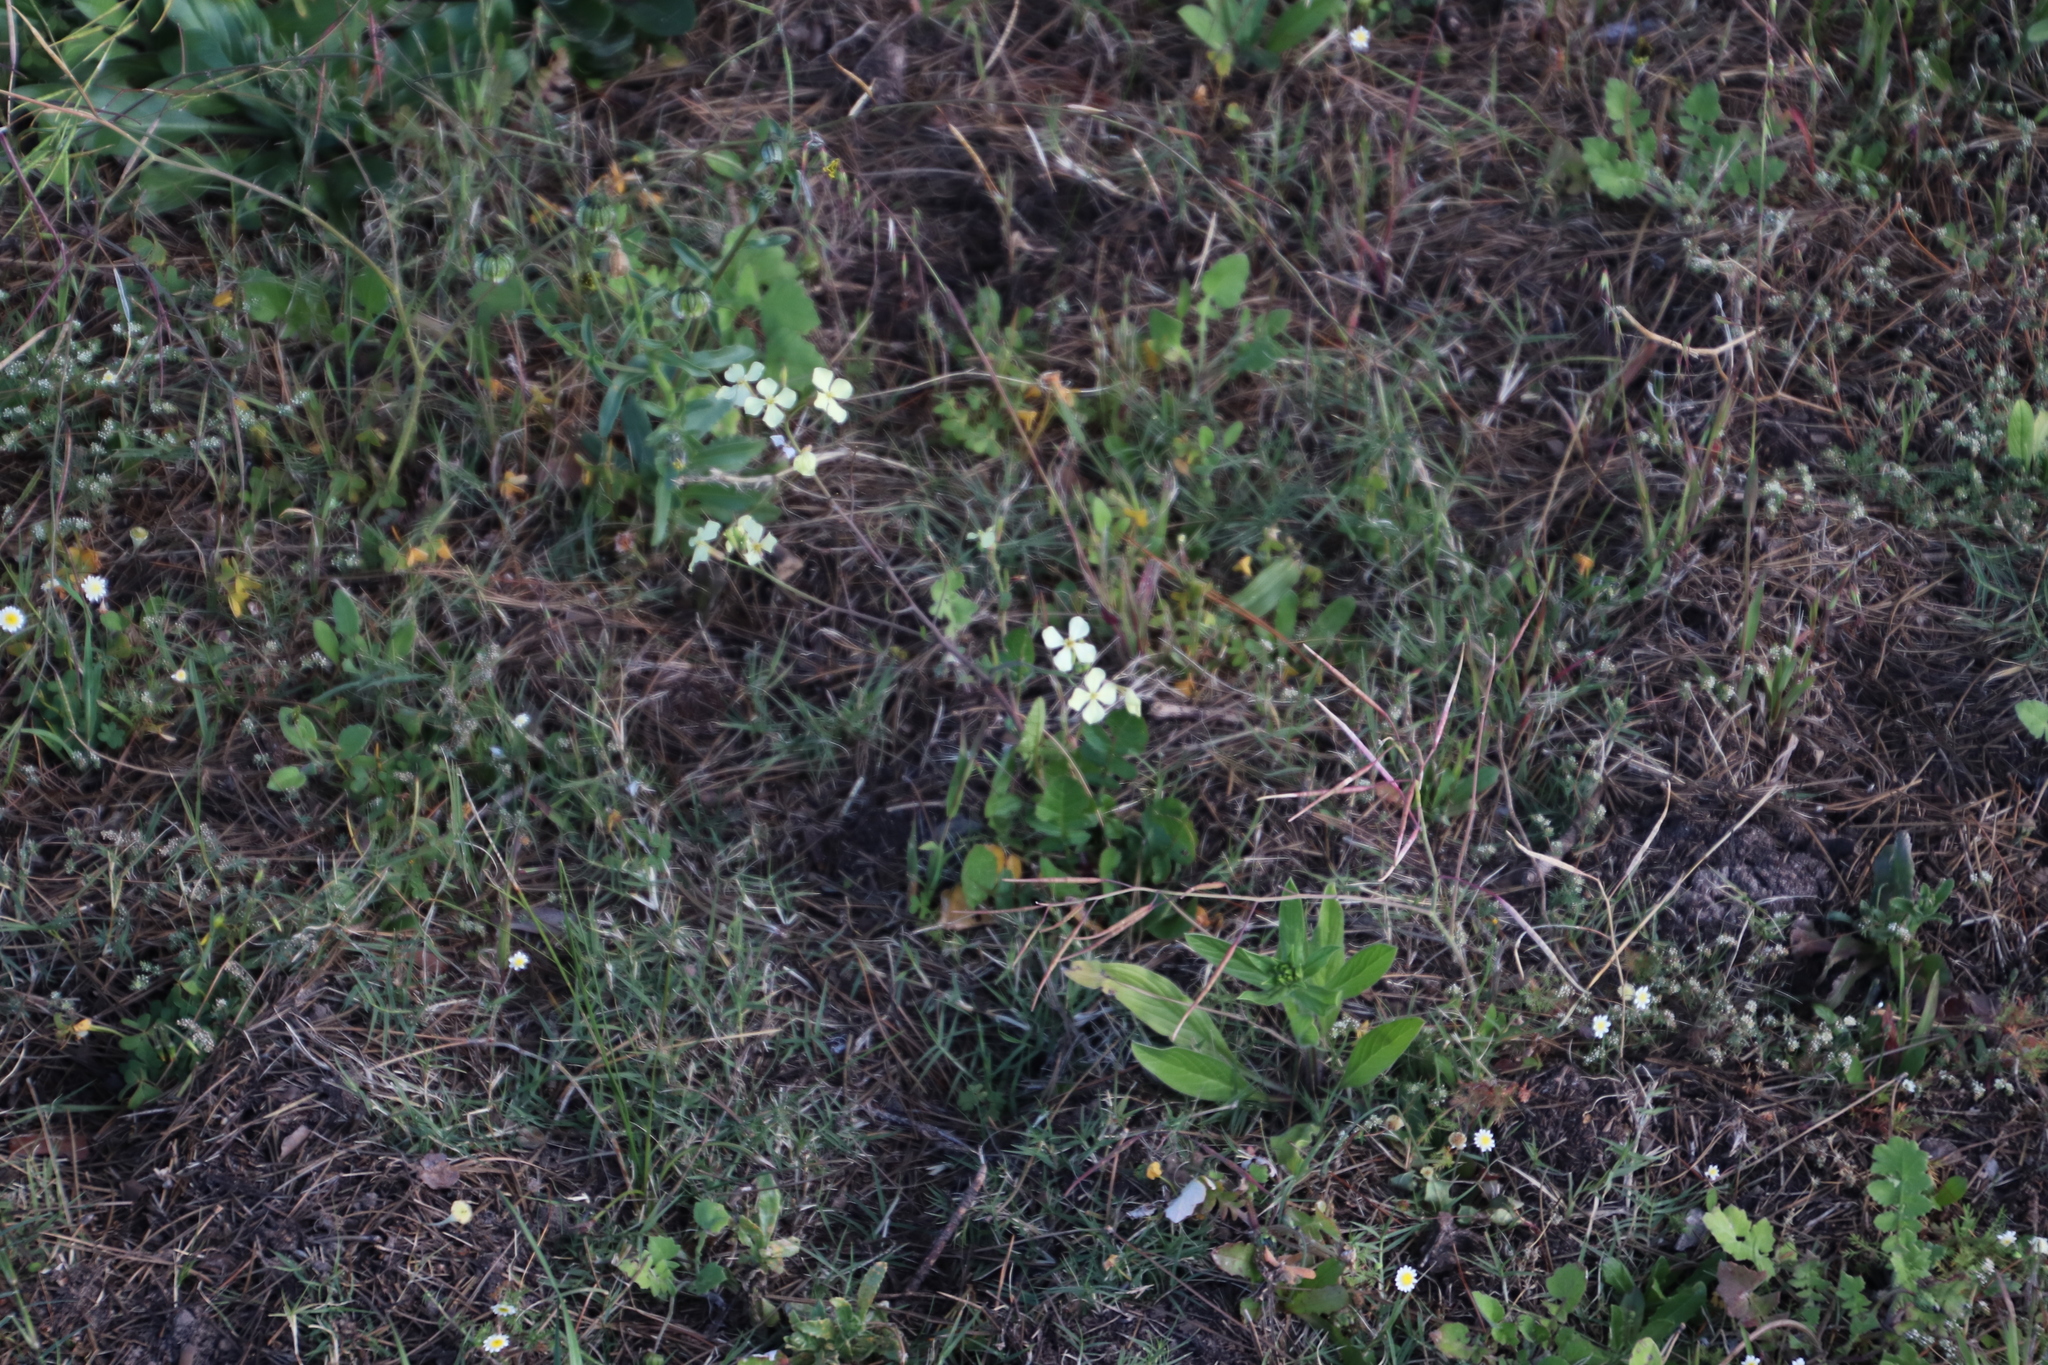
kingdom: Plantae
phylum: Tracheophyta
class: Magnoliopsida
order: Brassicales
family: Brassicaceae
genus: Raphanus
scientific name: Raphanus raphanistrum
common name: Wild radish
